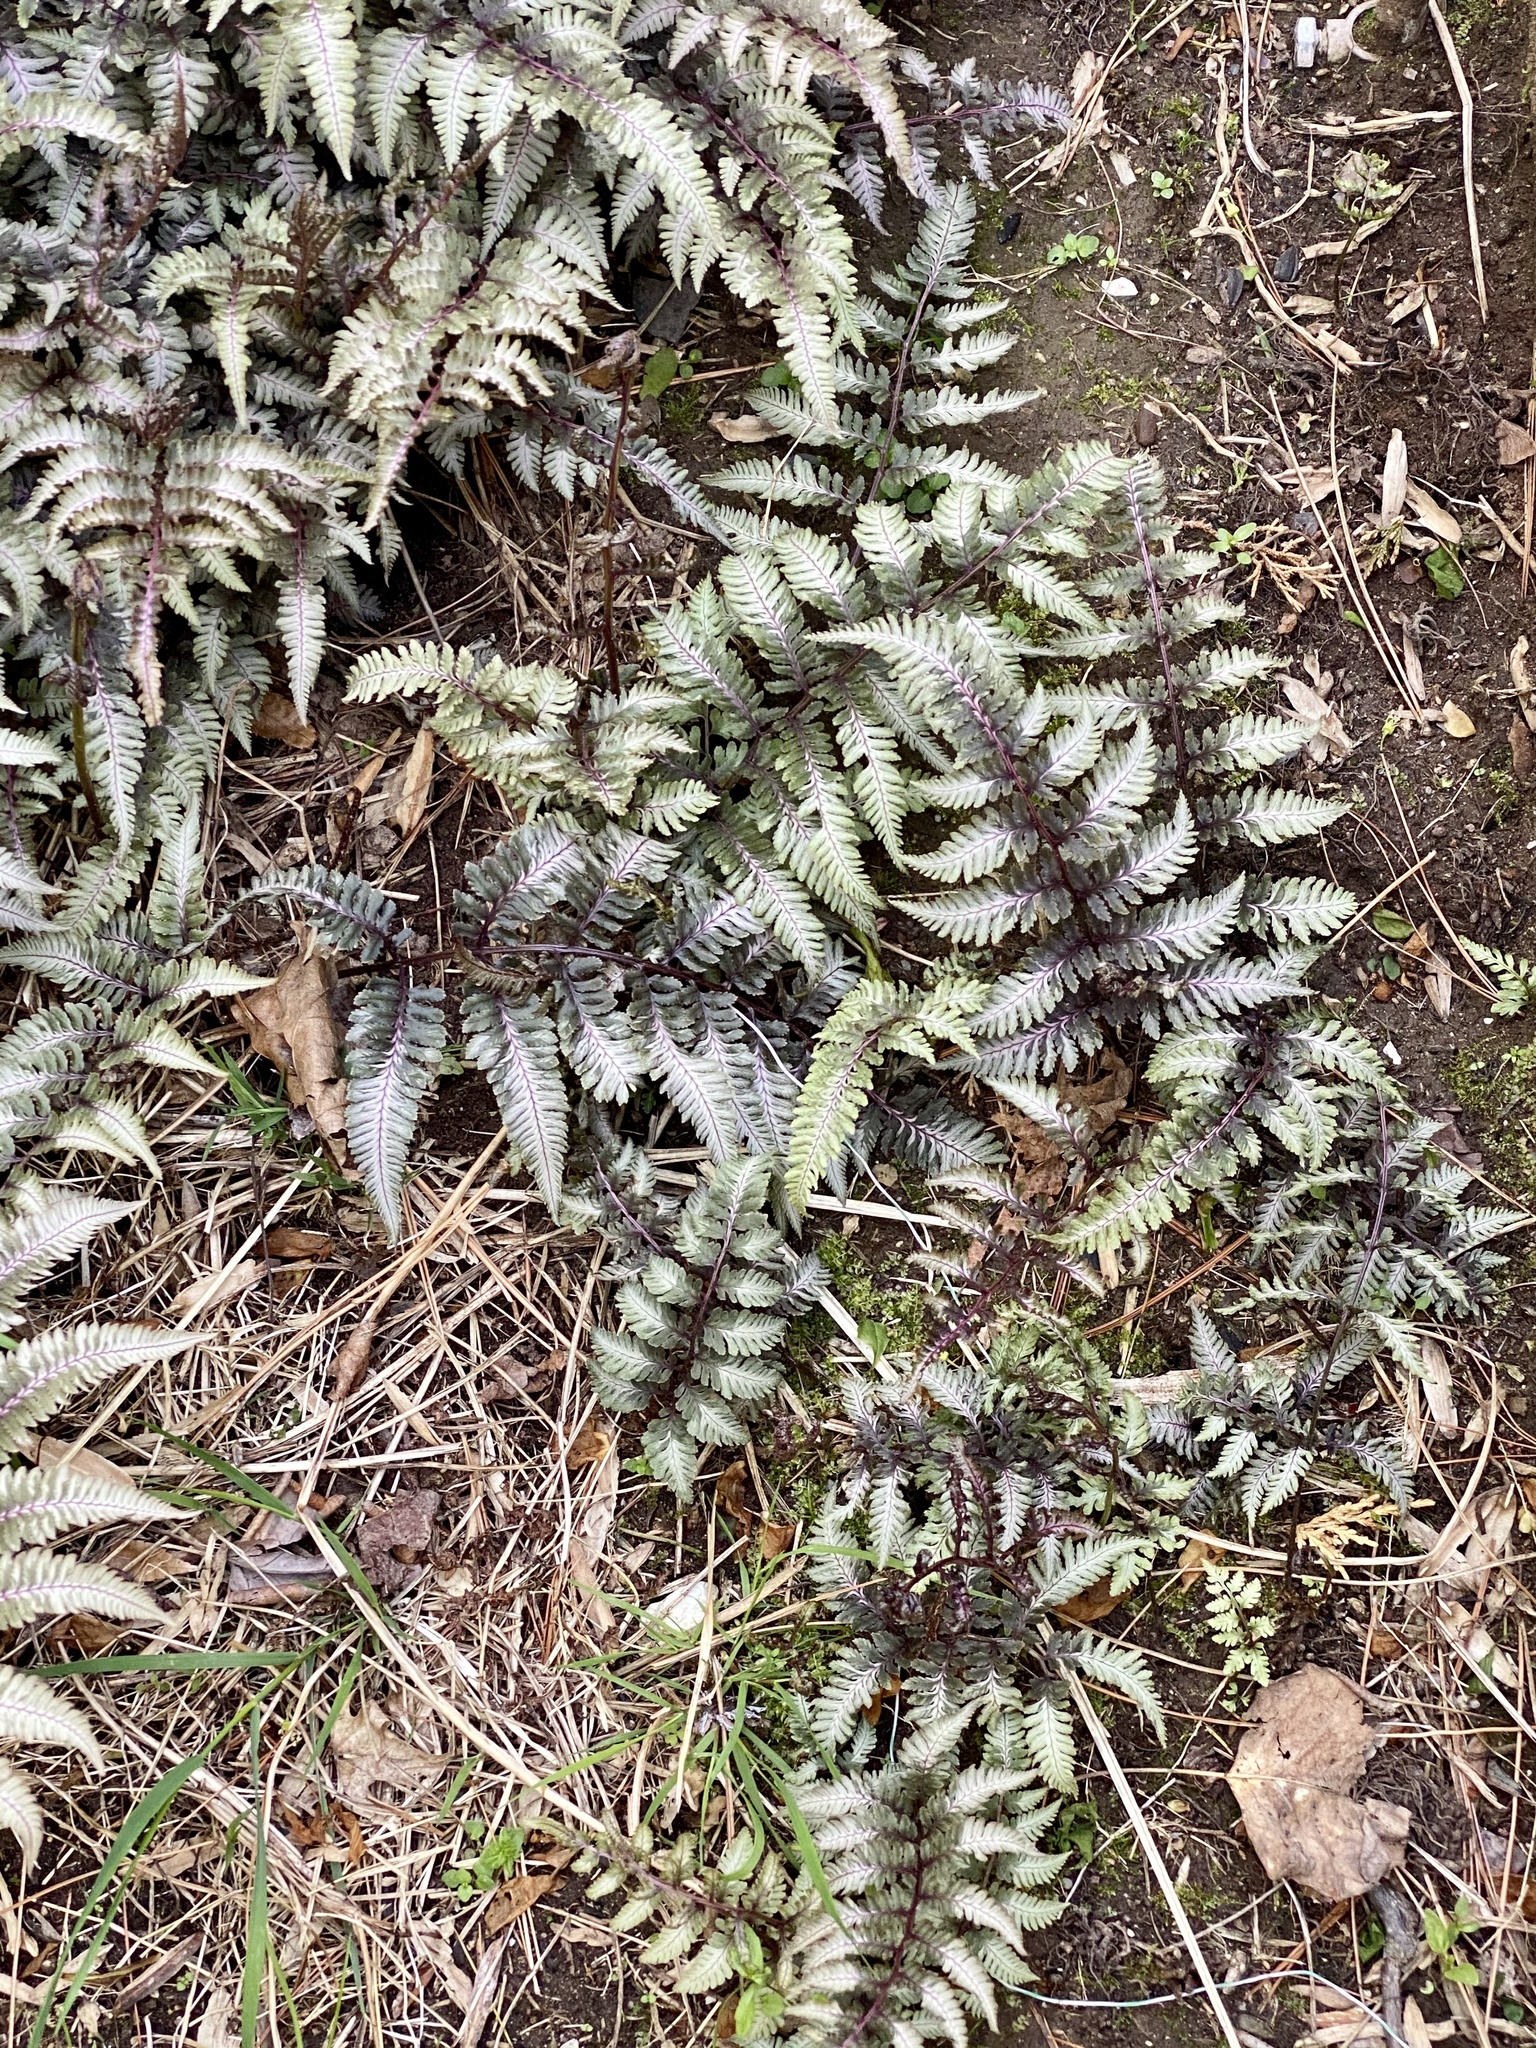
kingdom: Plantae
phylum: Tracheophyta
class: Polypodiopsida
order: Polypodiales
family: Athyriaceae
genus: Anisocampium
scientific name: Anisocampium niponicum
